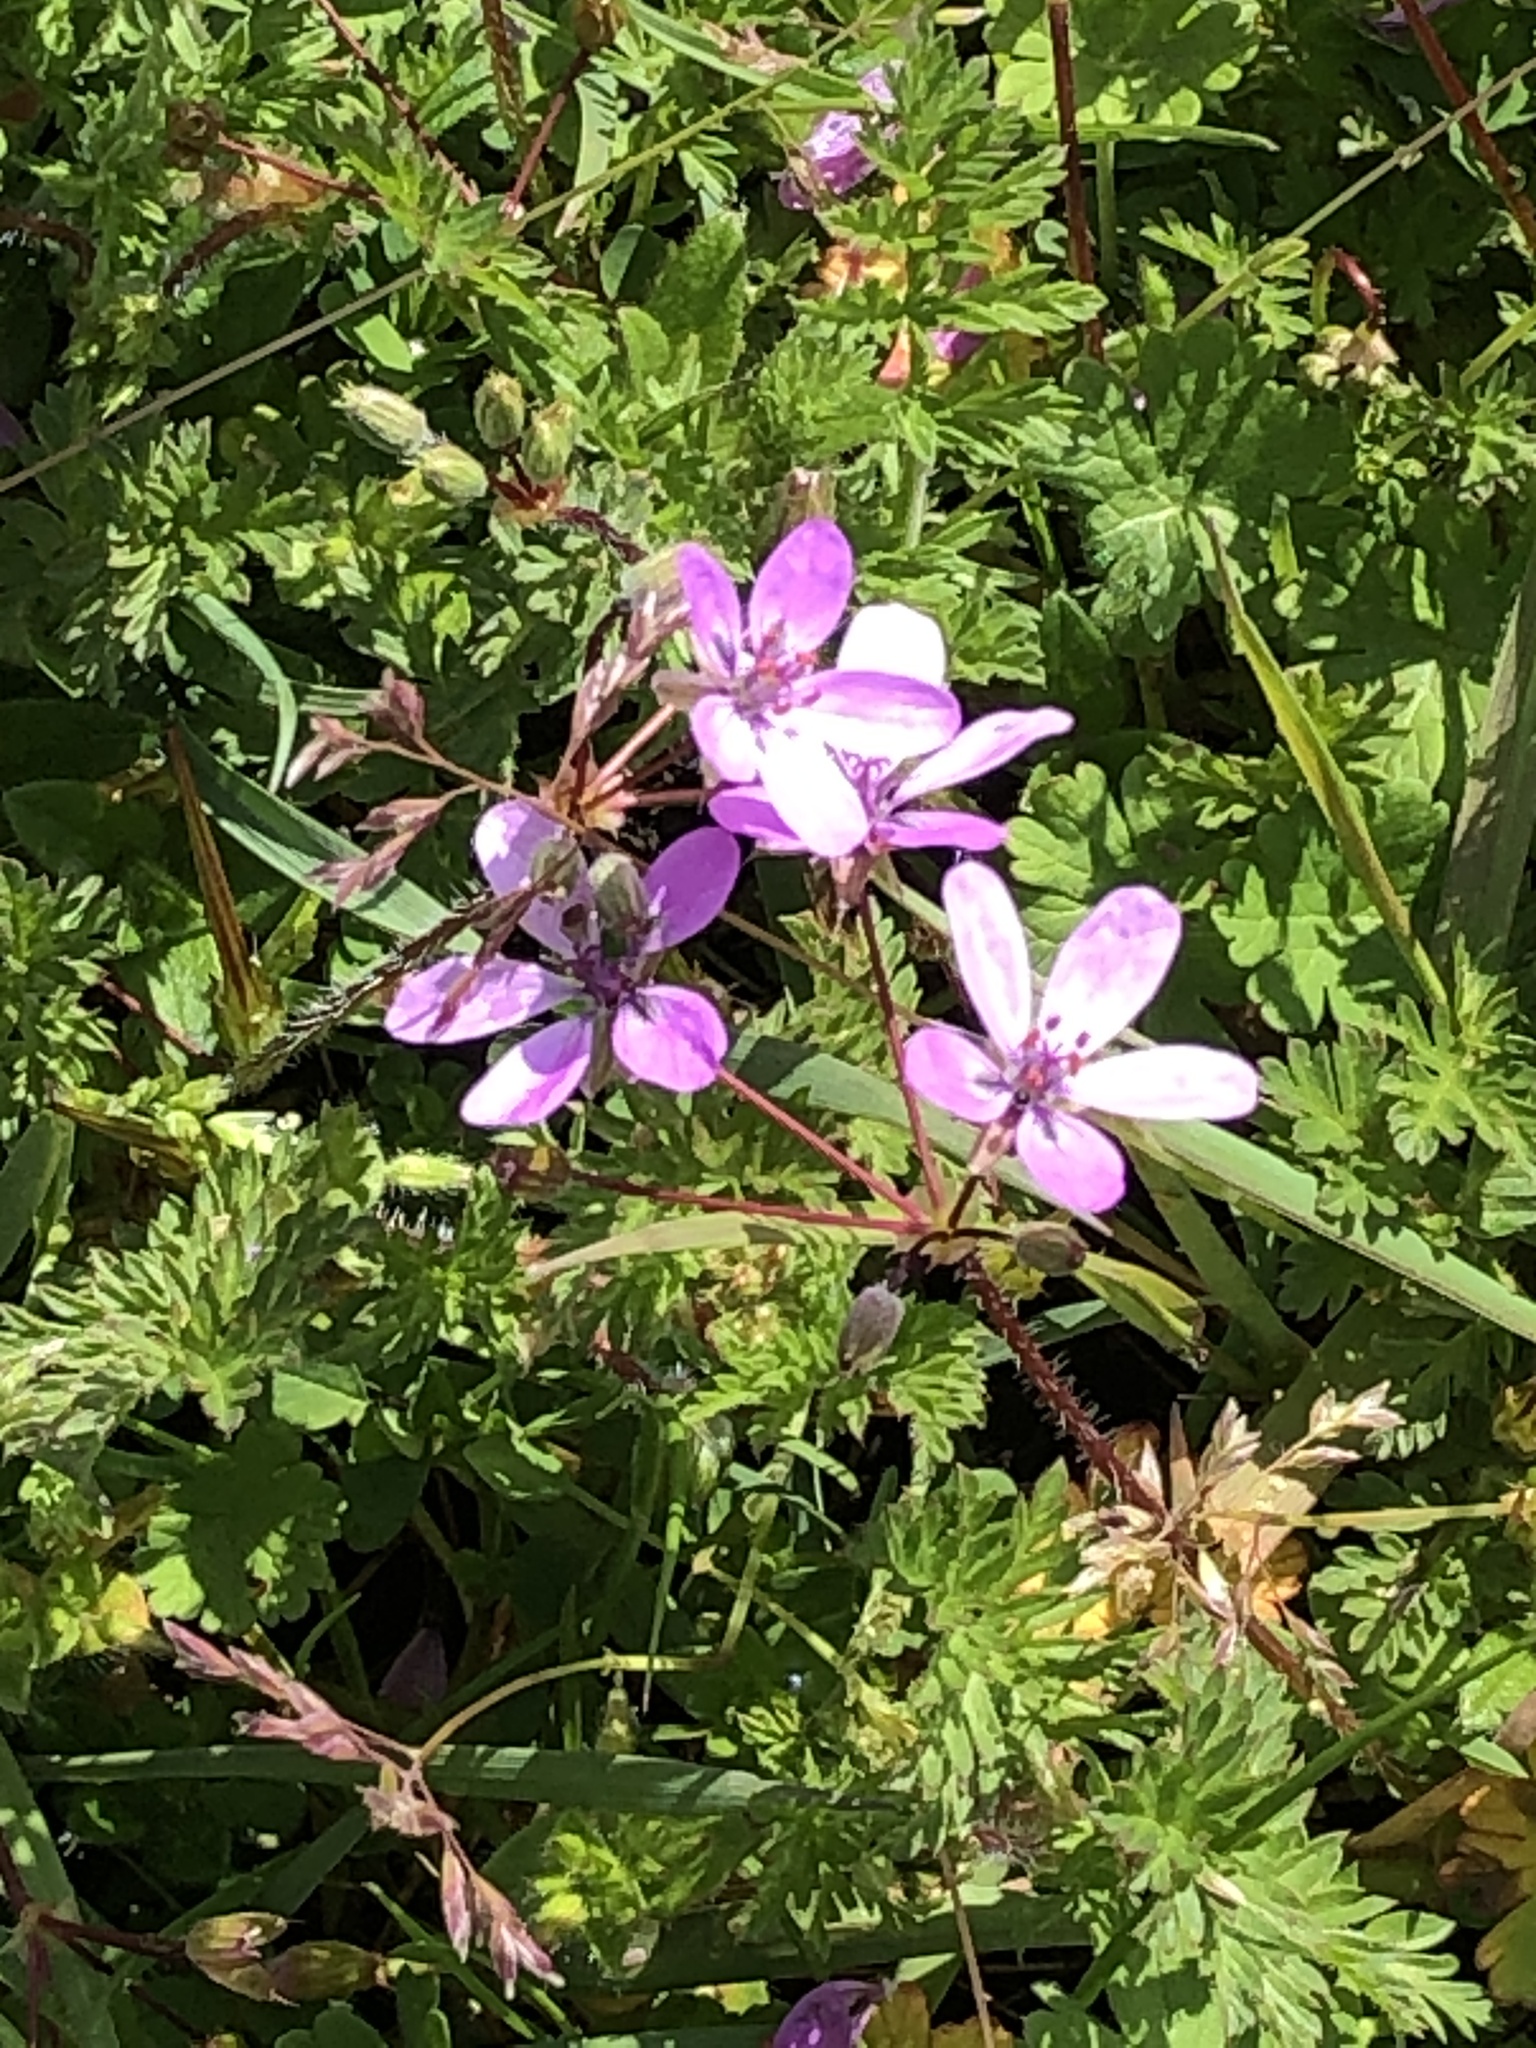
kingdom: Plantae
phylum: Tracheophyta
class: Magnoliopsida
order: Geraniales
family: Geraniaceae
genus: Erodium
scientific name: Erodium cicutarium
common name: Common stork's-bill
